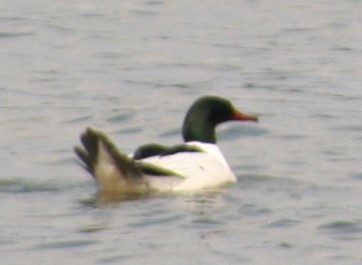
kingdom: Animalia
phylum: Chordata
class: Aves
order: Anseriformes
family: Anatidae
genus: Mergus
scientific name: Mergus merganser
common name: Common merganser
